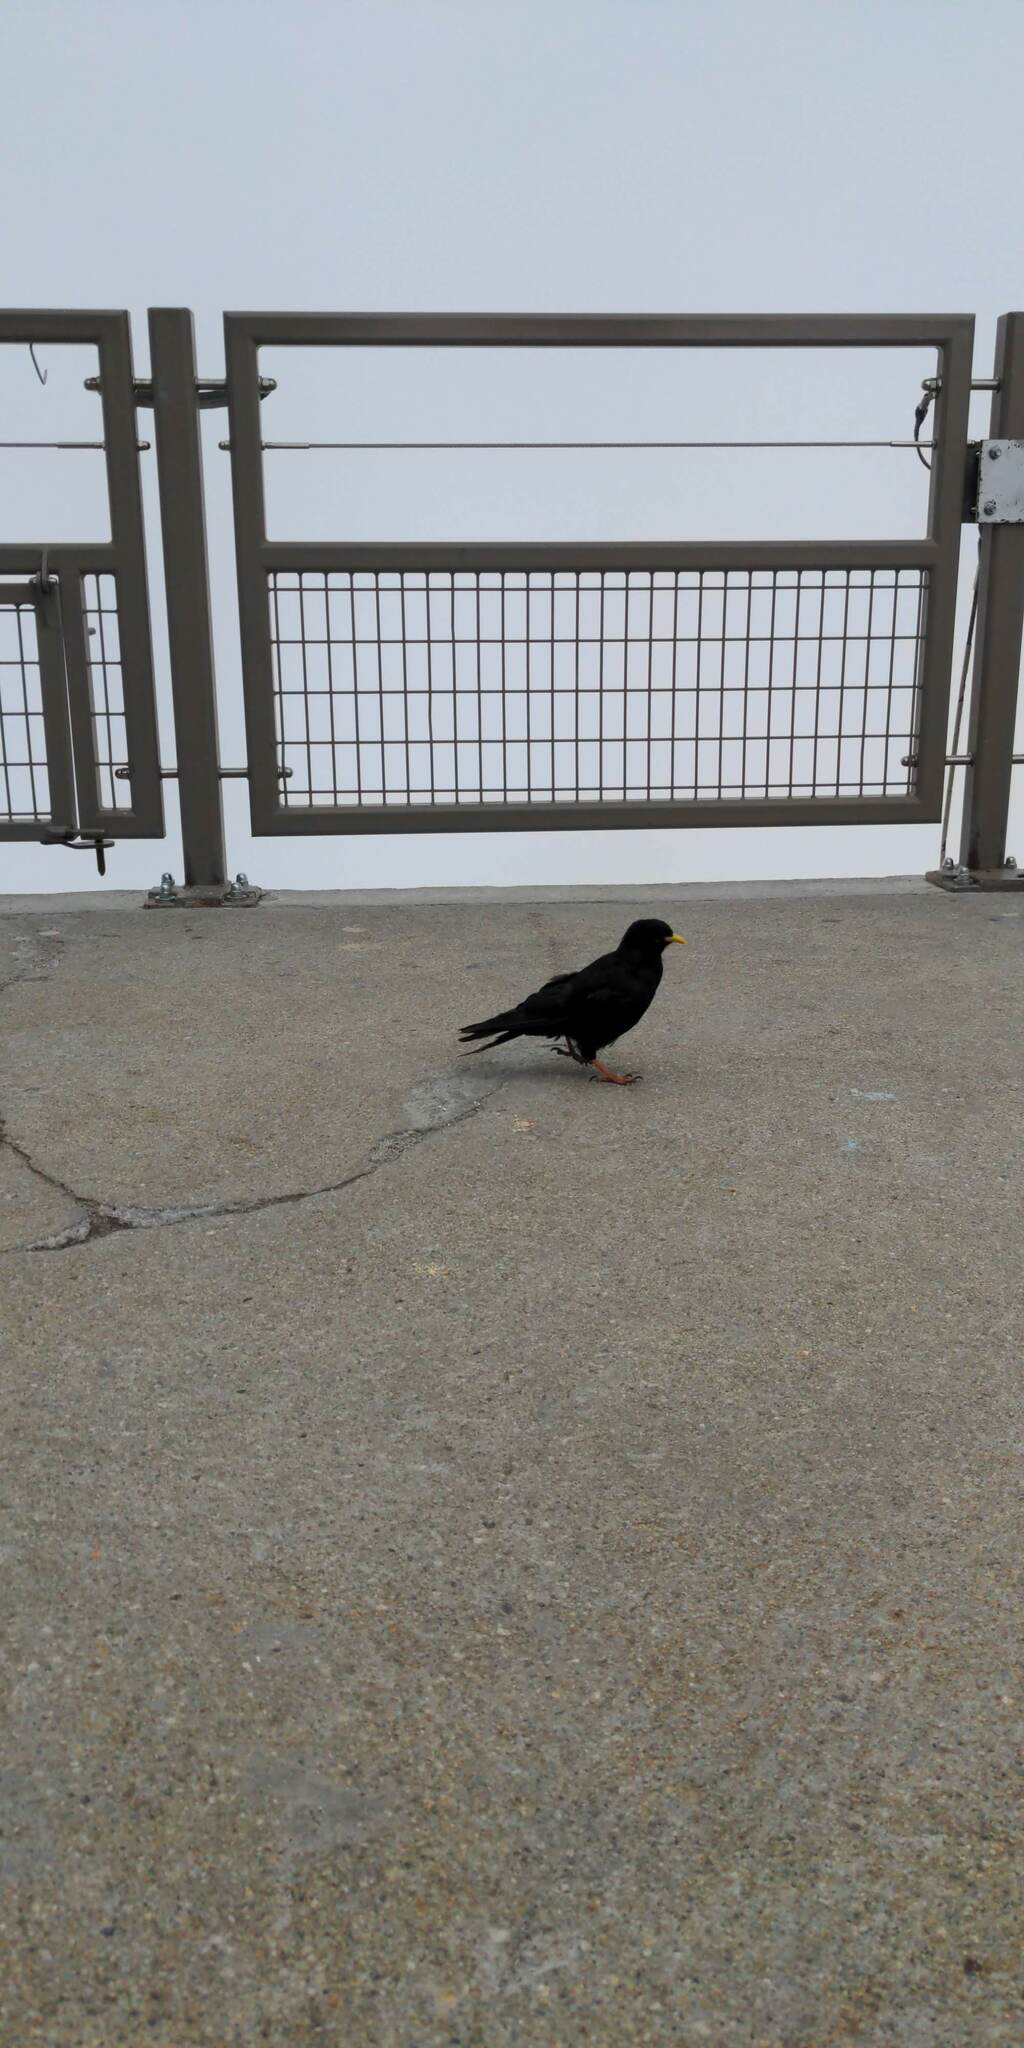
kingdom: Animalia
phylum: Chordata
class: Aves
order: Passeriformes
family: Corvidae
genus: Pyrrhocorax
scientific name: Pyrrhocorax graculus
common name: Alpine chough
